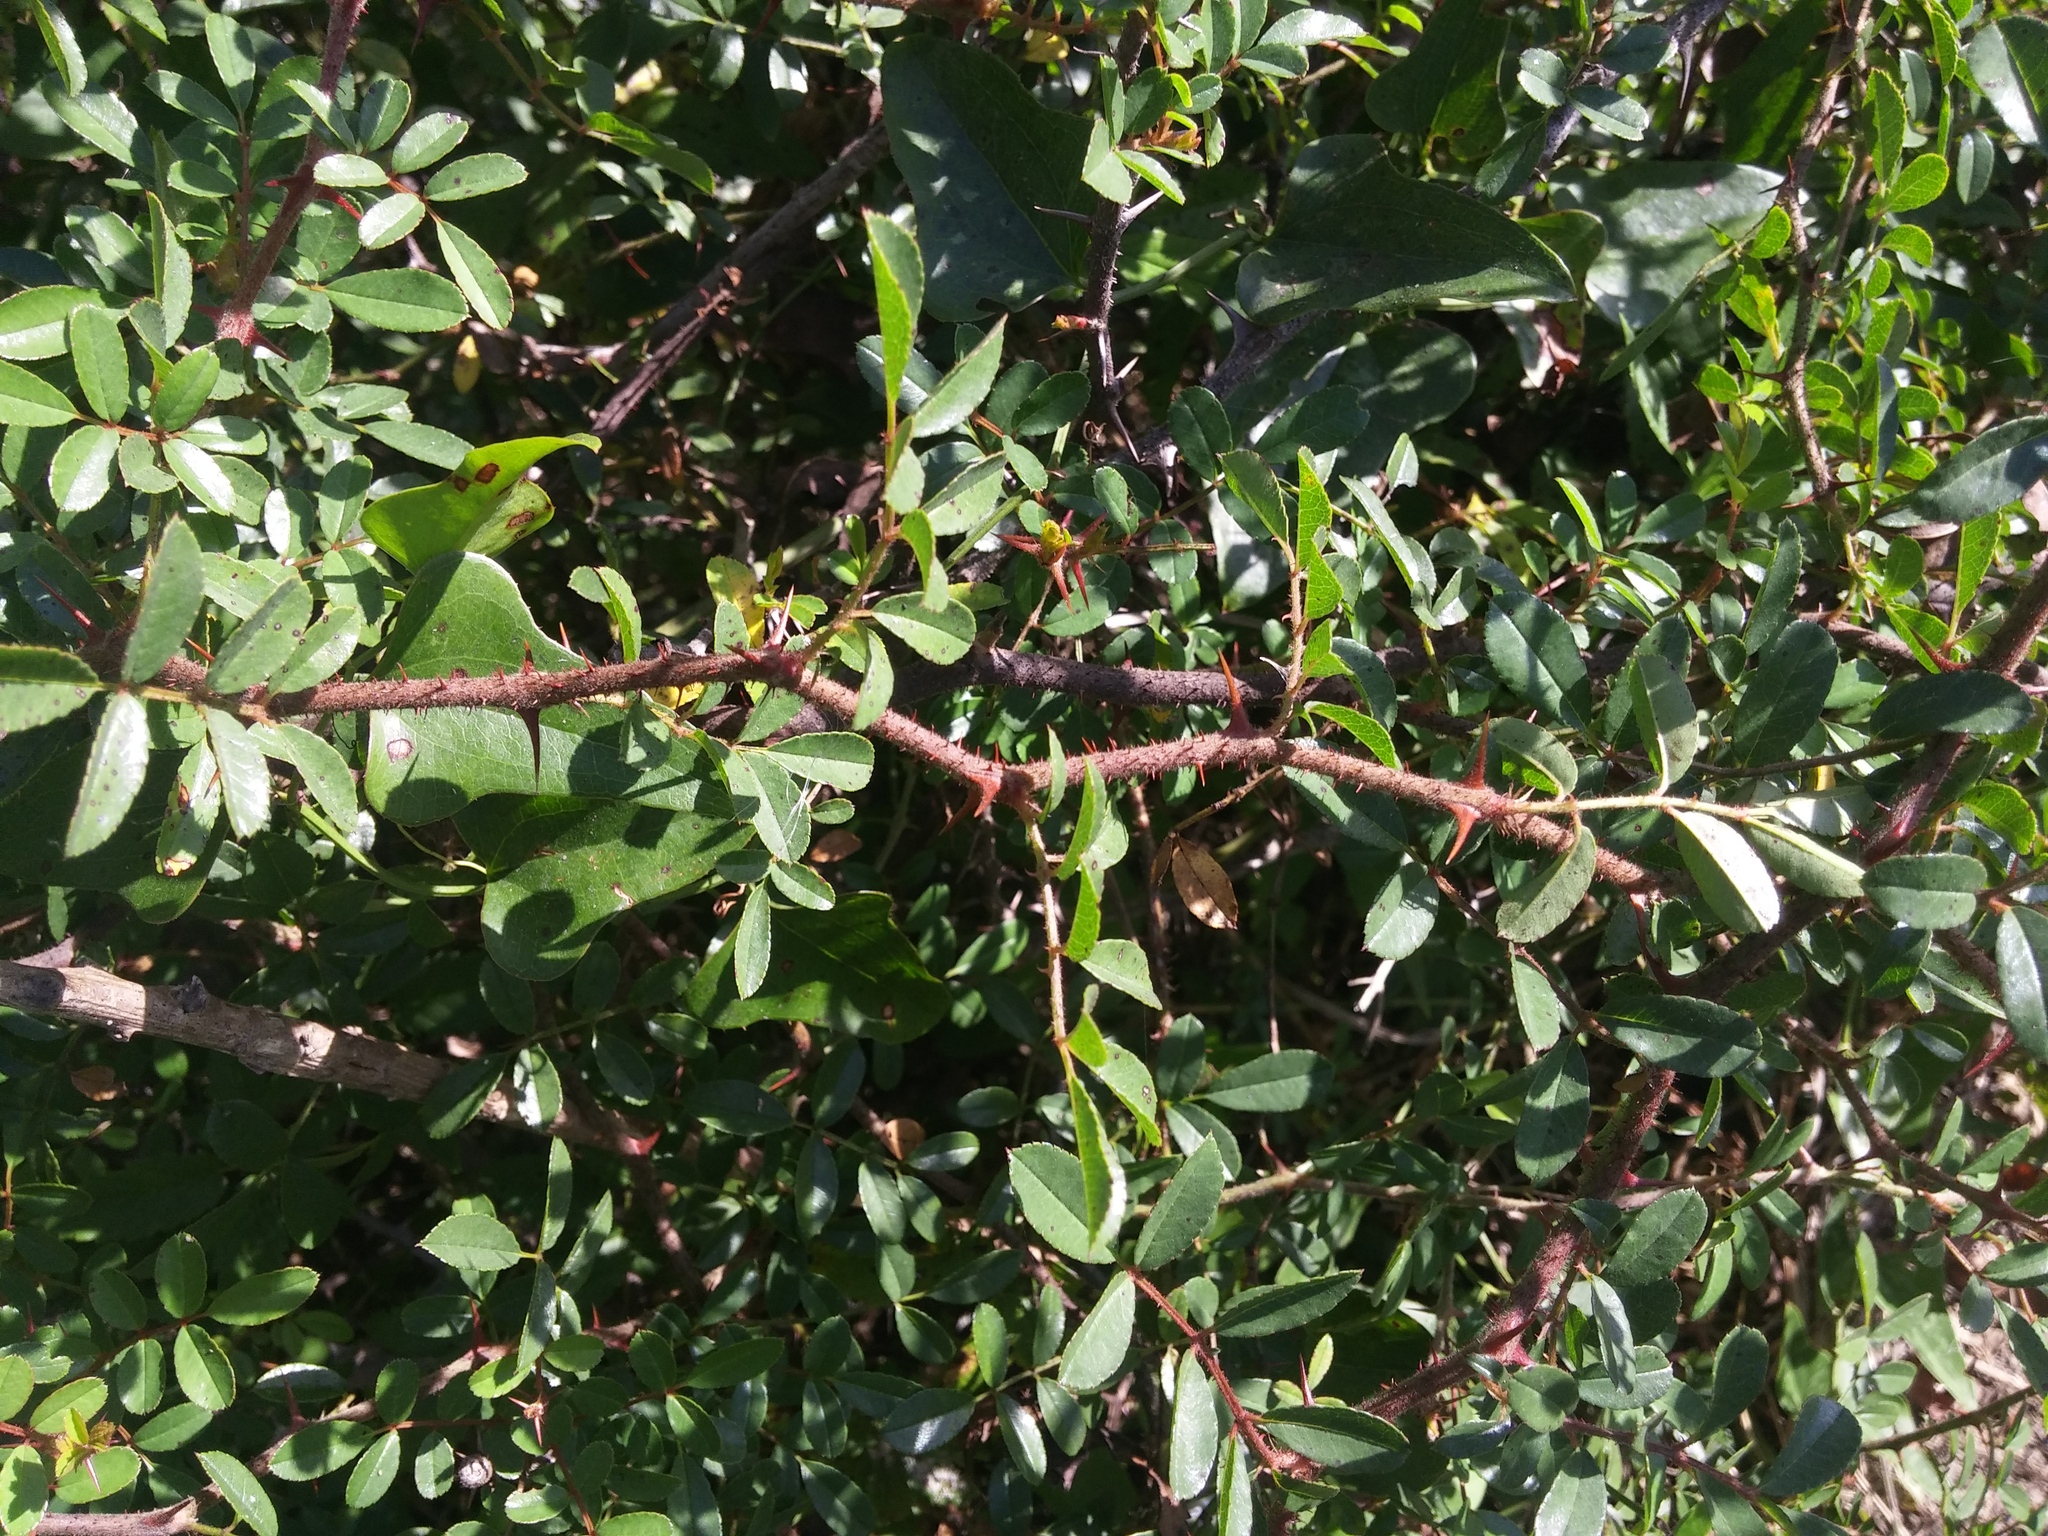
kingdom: Plantae
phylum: Tracheophyta
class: Magnoliopsida
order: Rosales
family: Rosaceae
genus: Rosa
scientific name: Rosa bracteata
